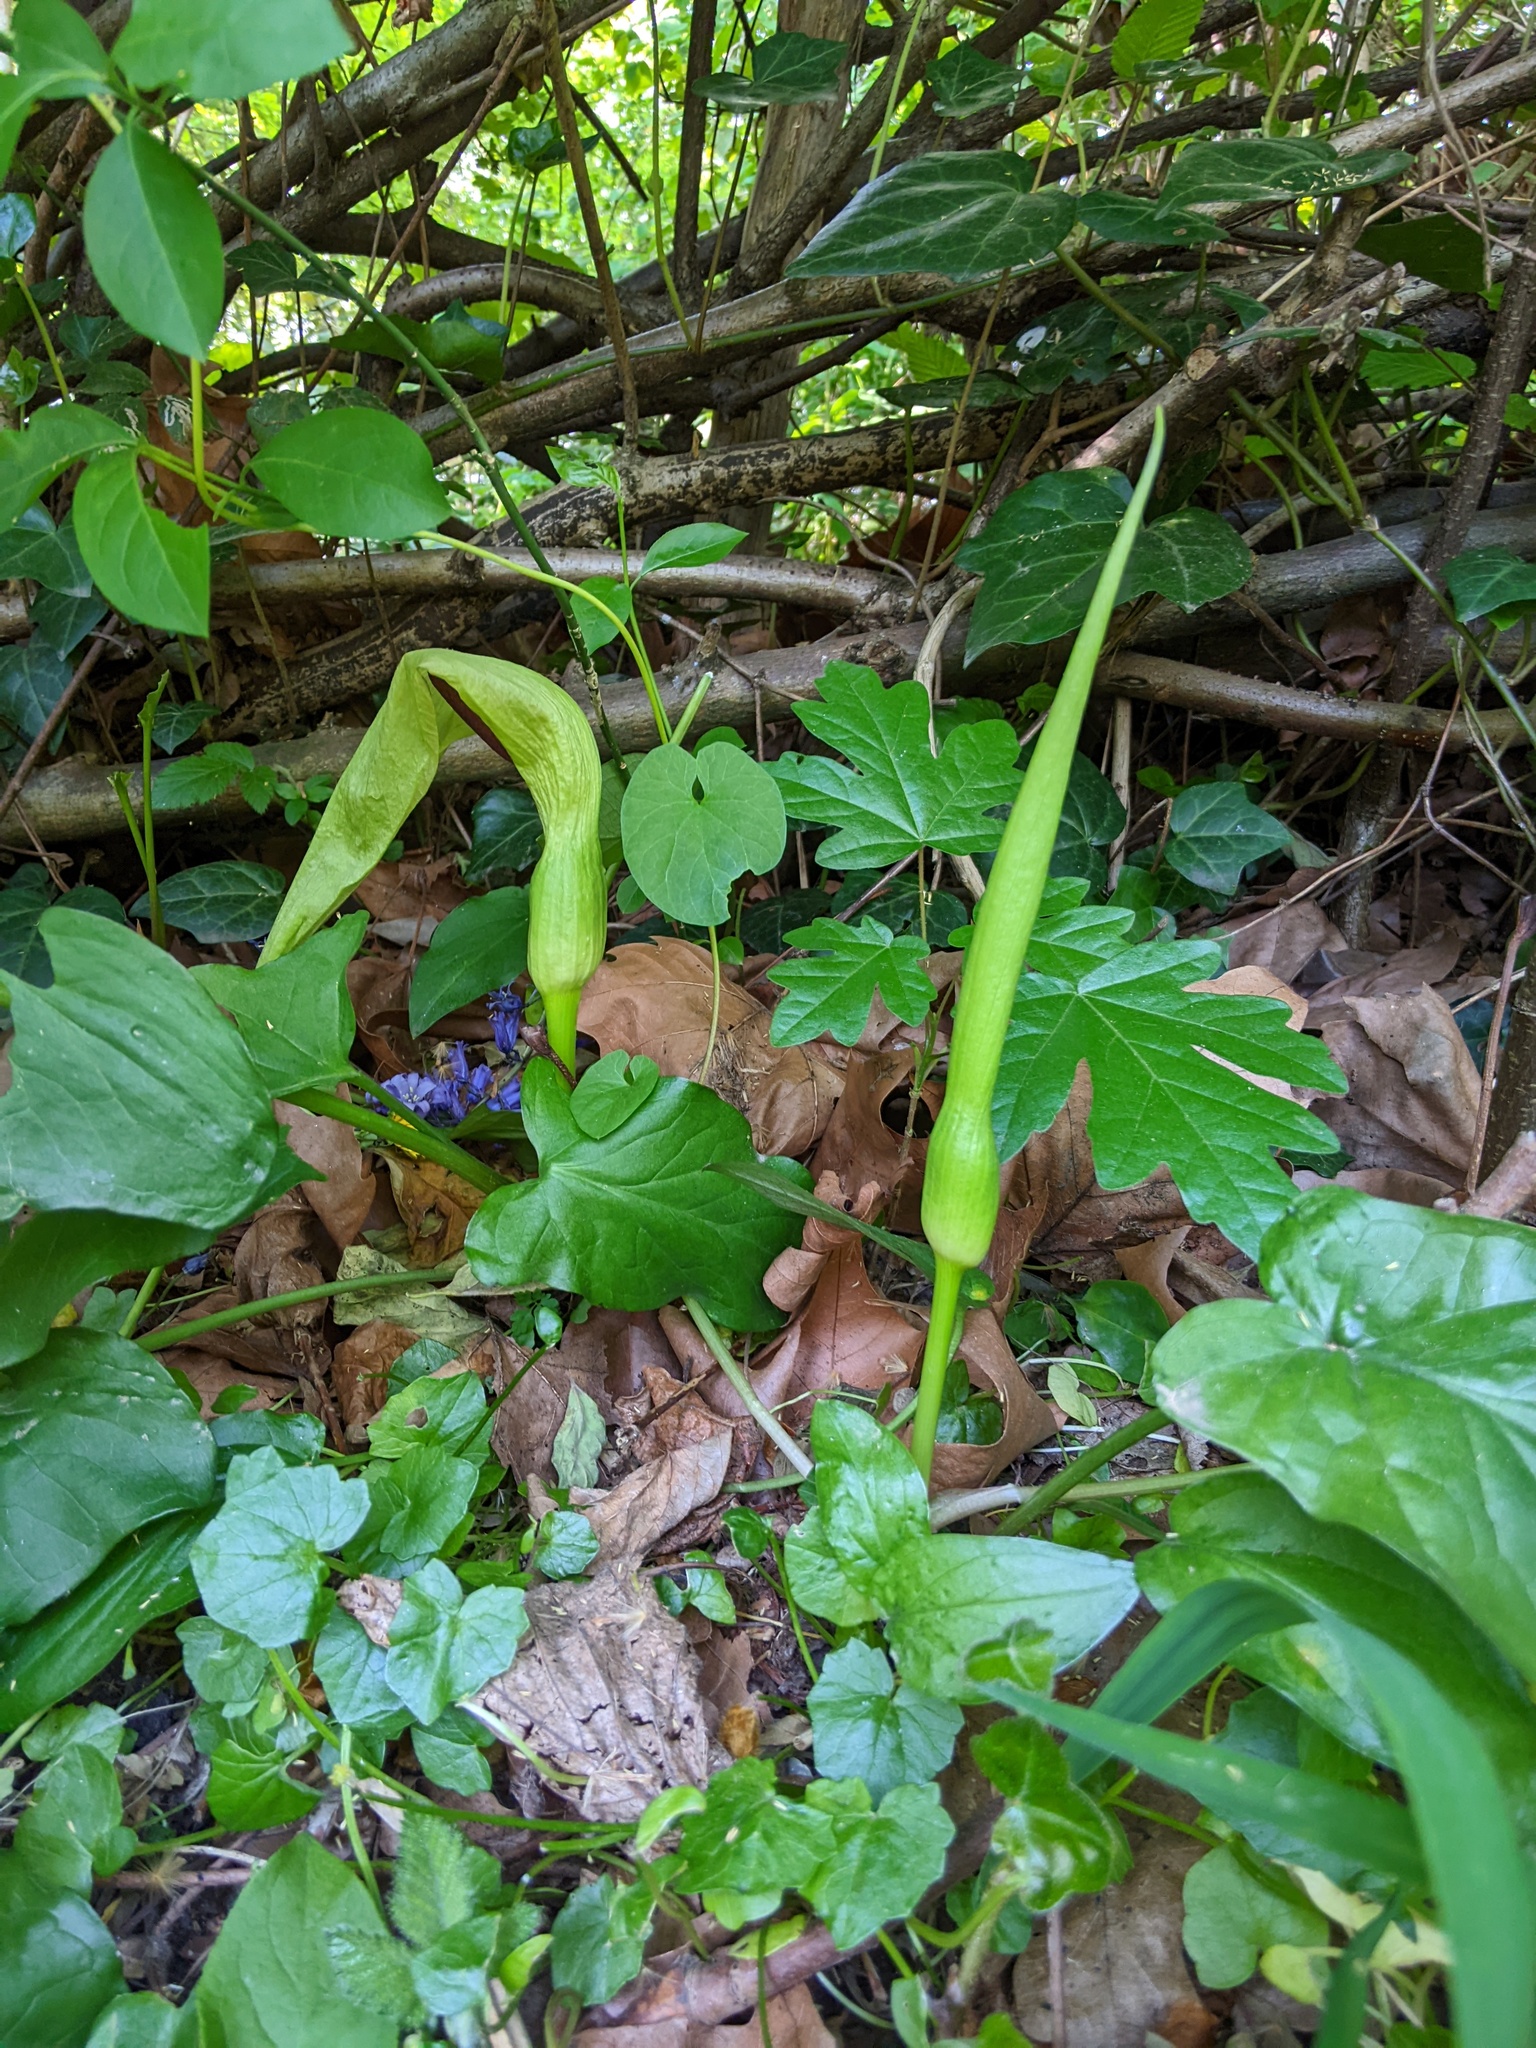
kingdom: Plantae
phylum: Tracheophyta
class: Liliopsida
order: Alismatales
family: Araceae
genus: Arum
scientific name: Arum maculatum
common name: Lords-and-ladies
